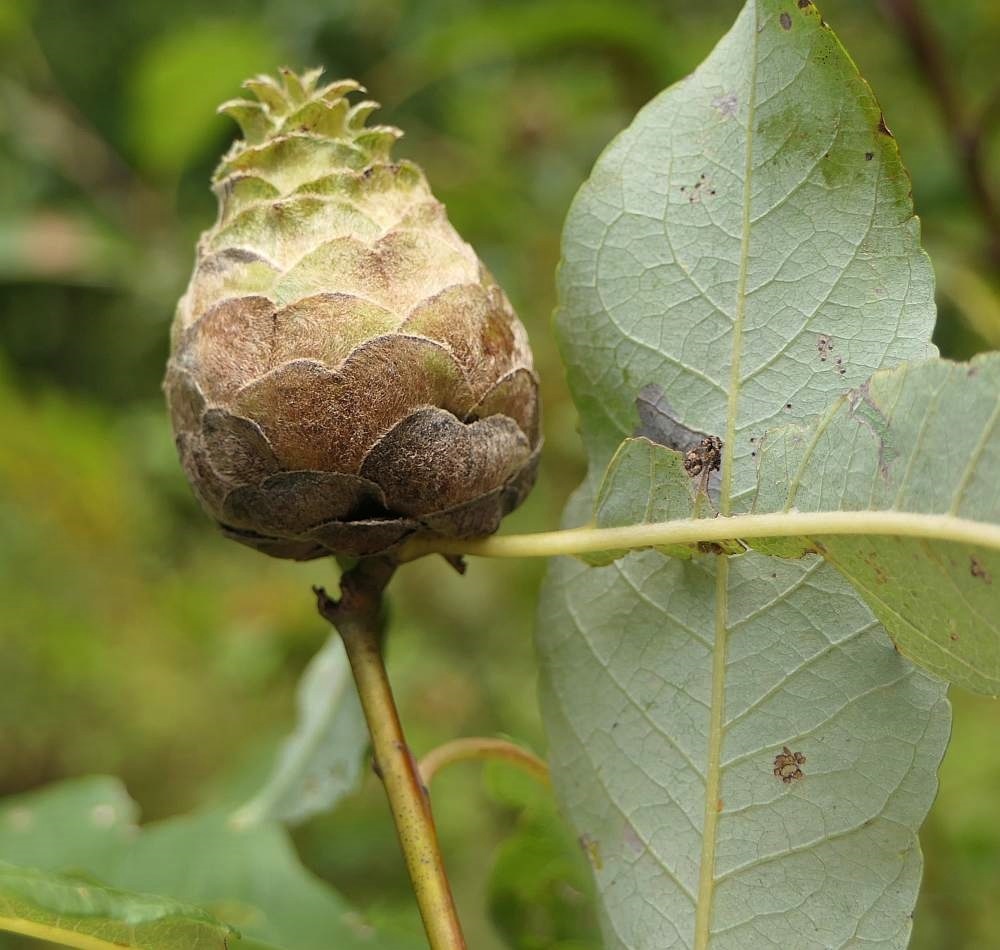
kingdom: Animalia
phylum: Arthropoda
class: Insecta
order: Diptera
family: Cecidomyiidae
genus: Rabdophaga
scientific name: Rabdophaga strobiloides
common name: Willow pinecone gall midge
